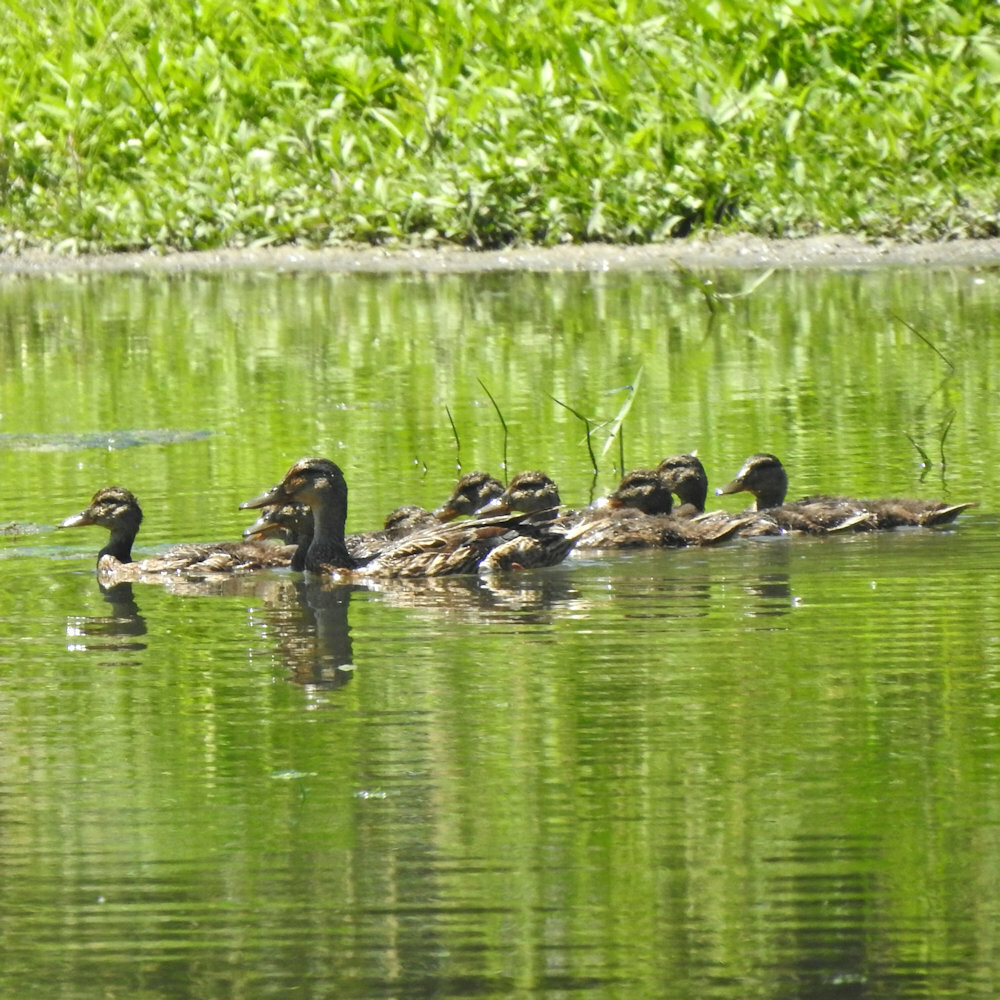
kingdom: Animalia
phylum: Chordata
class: Aves
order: Anseriformes
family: Anatidae
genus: Anas
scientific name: Anas platyrhynchos
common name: Mallard
